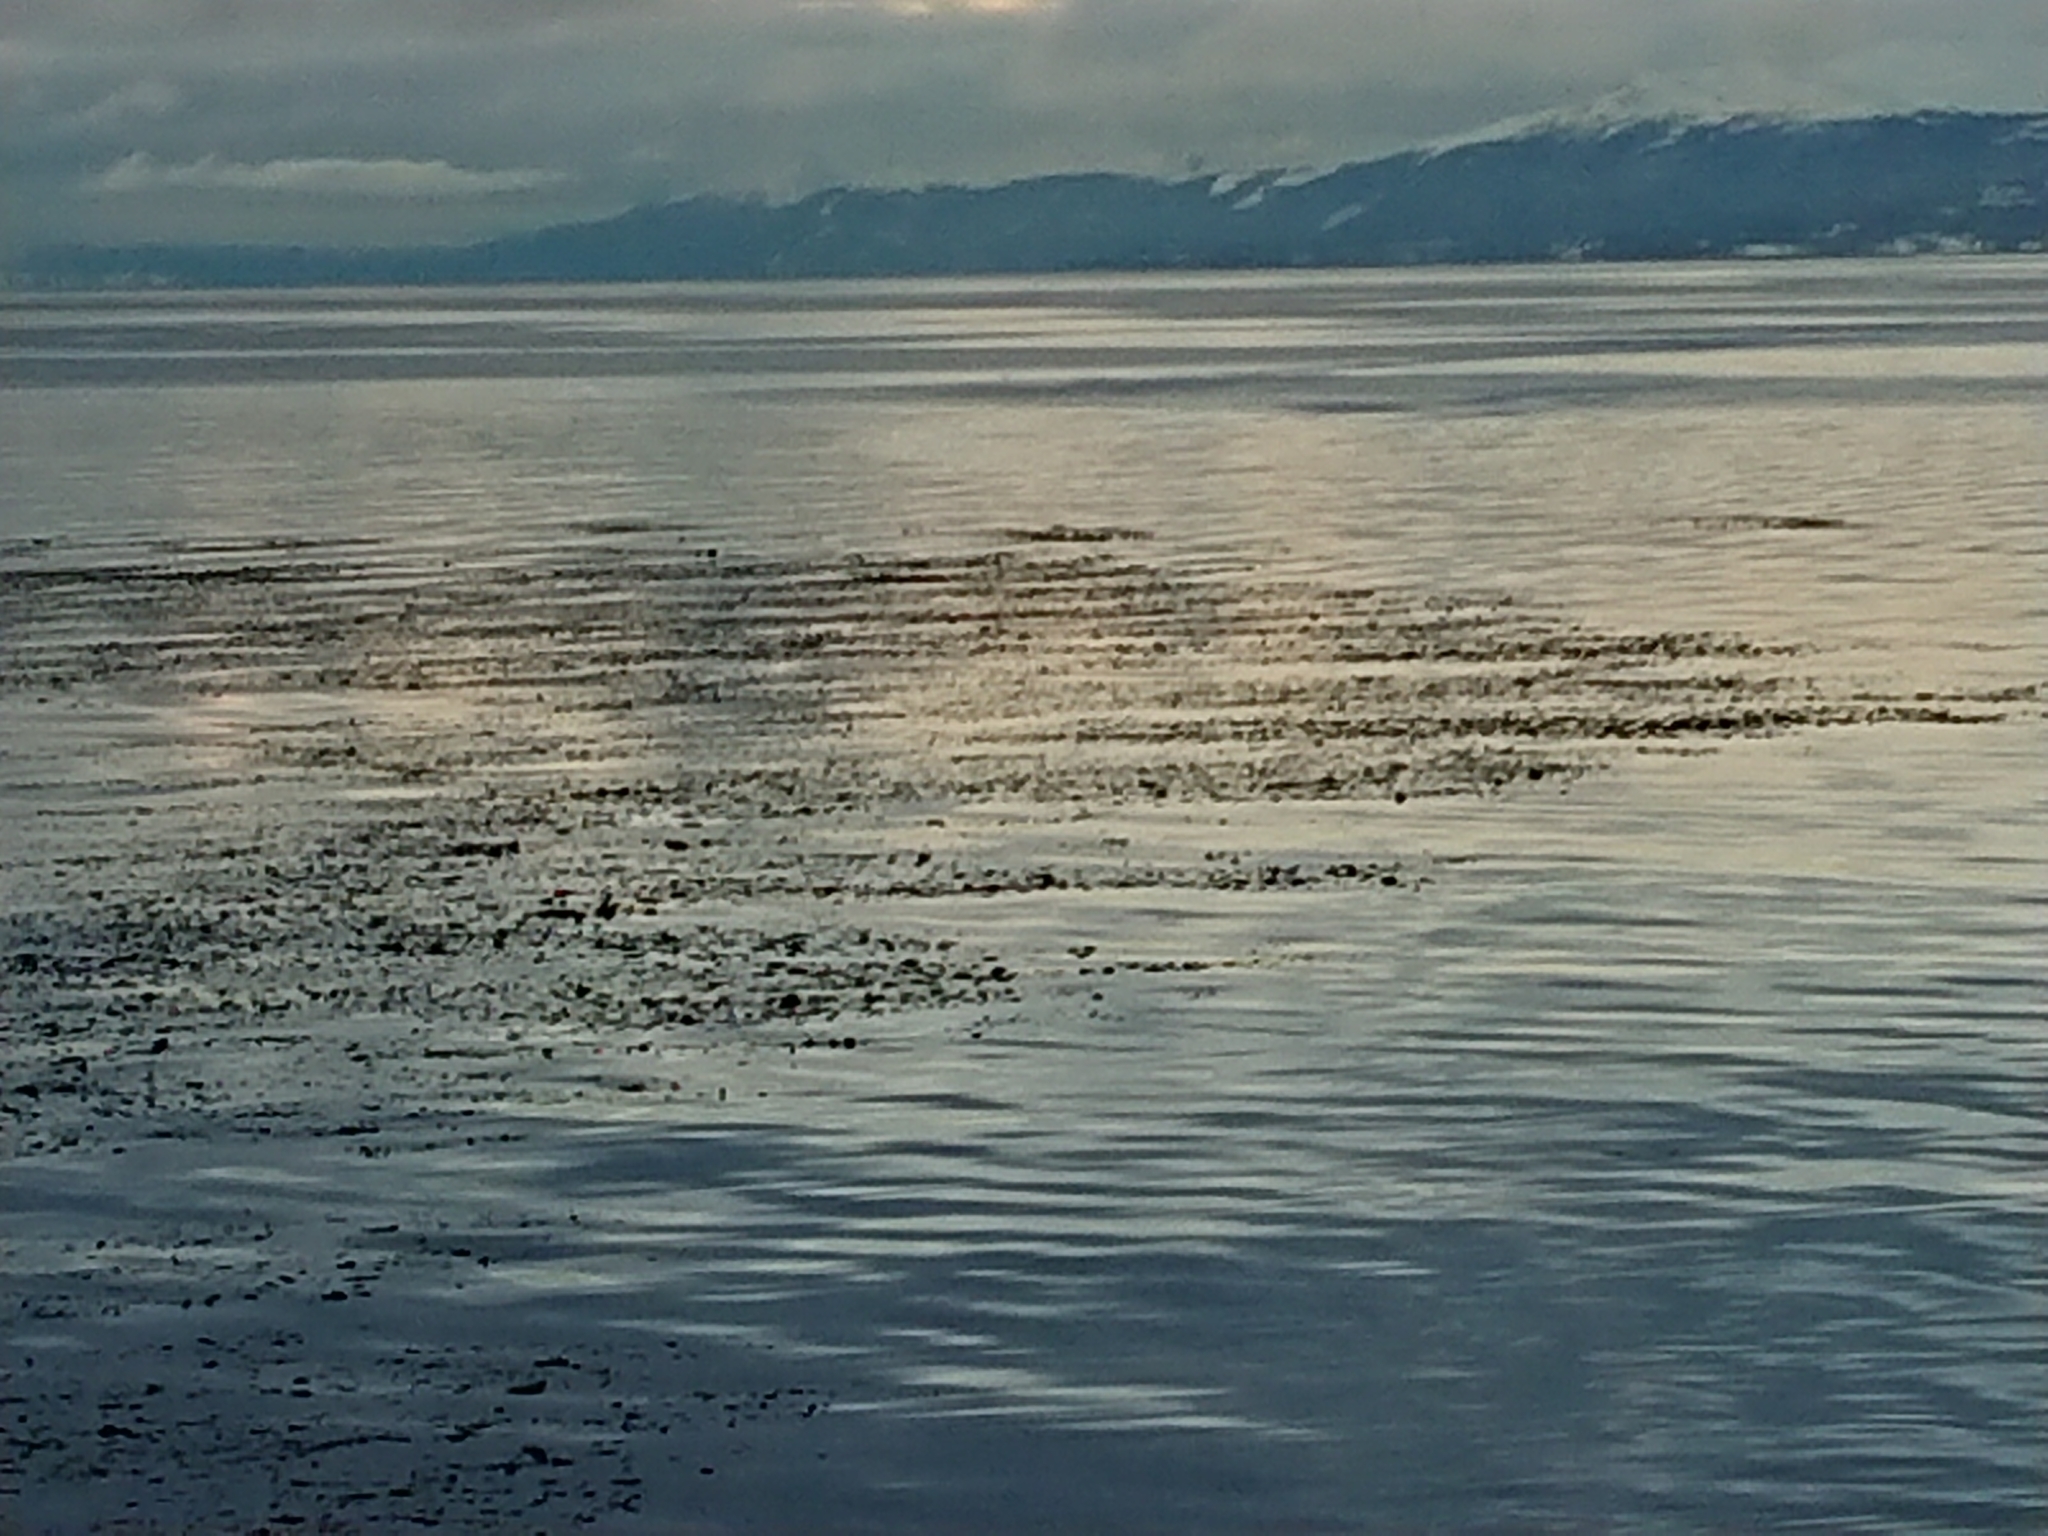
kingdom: Chromista
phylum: Ochrophyta
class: Phaeophyceae
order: Laminariales
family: Laminariaceae
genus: Macrocystis
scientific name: Macrocystis pyrifera
